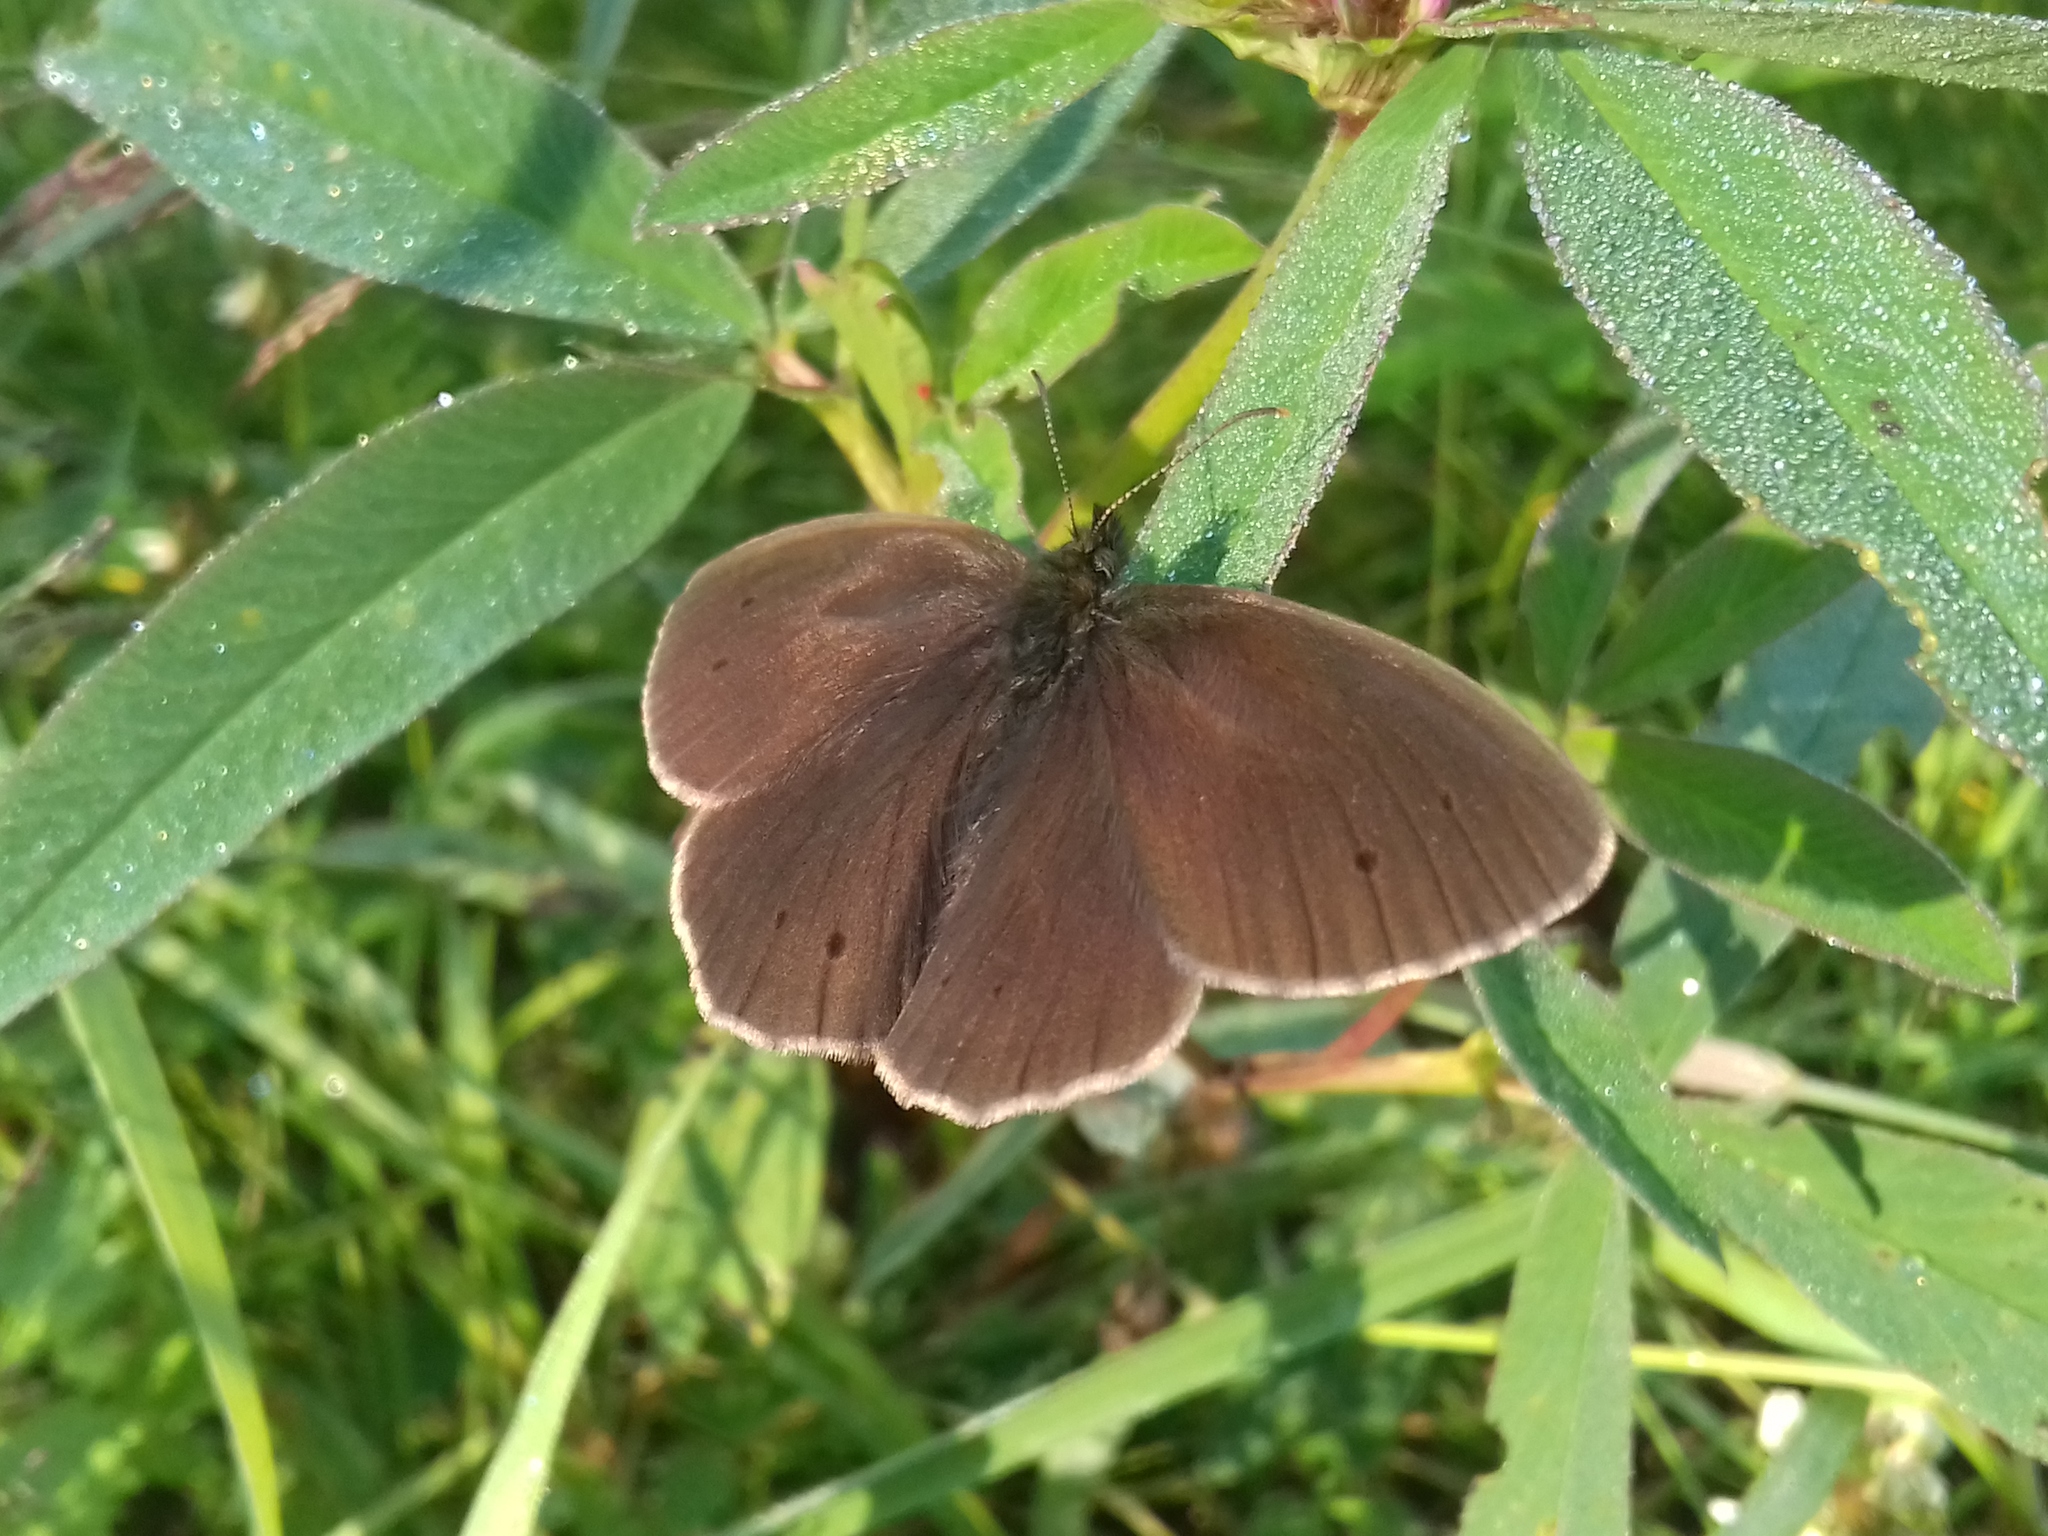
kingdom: Animalia
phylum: Arthropoda
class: Insecta
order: Lepidoptera
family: Nymphalidae
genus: Aphantopus
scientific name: Aphantopus hyperantus
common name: Ringlet
